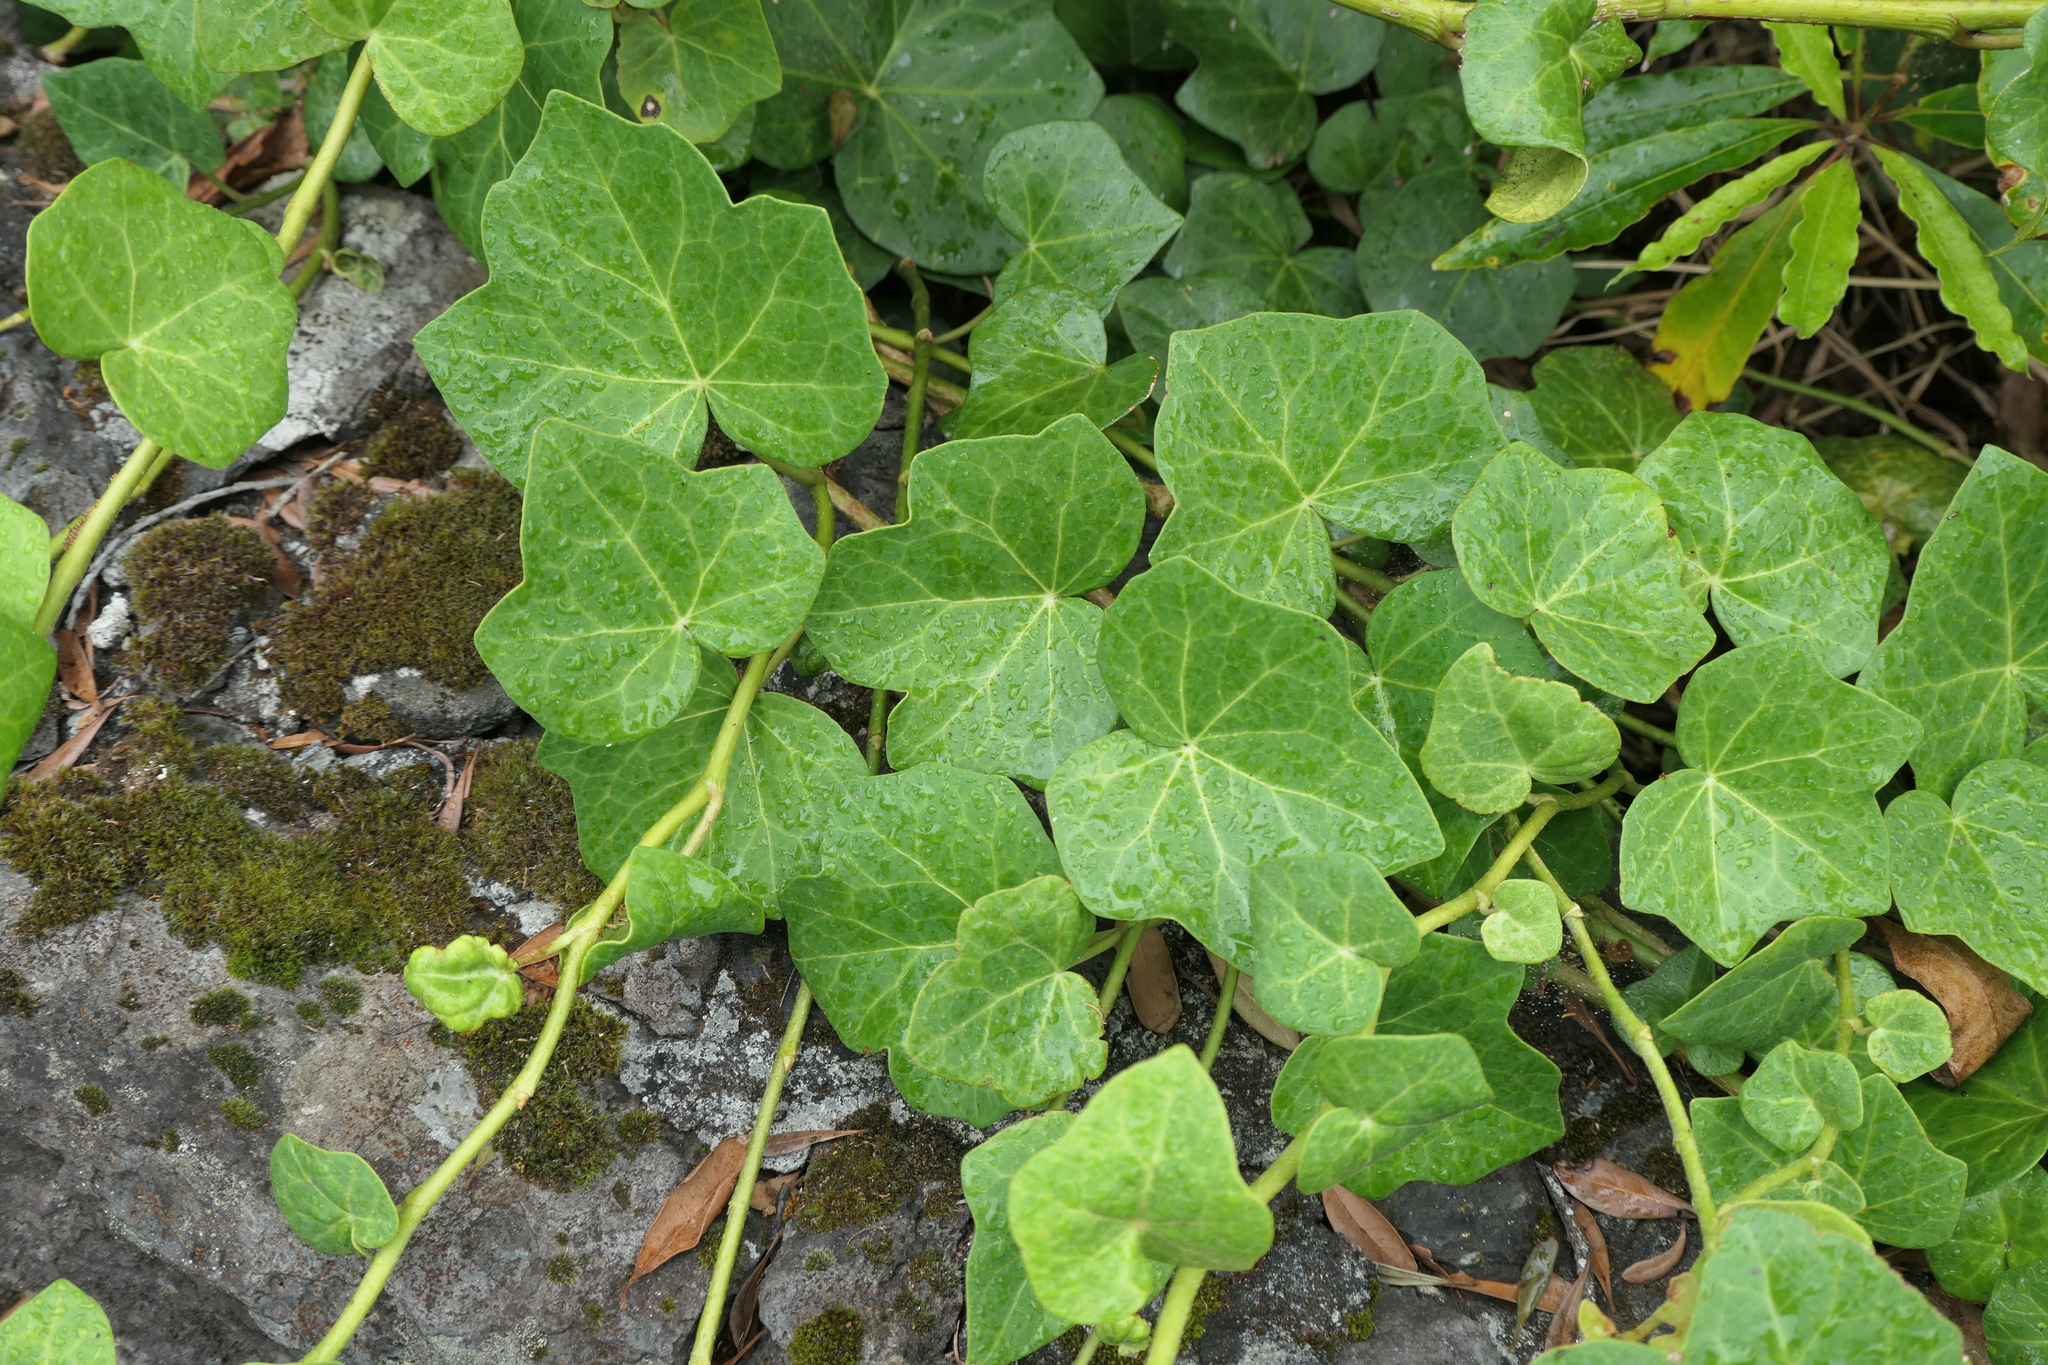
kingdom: Plantae
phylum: Tracheophyta
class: Magnoliopsida
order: Apiales
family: Araliaceae
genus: Hedera
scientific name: Hedera azorica
